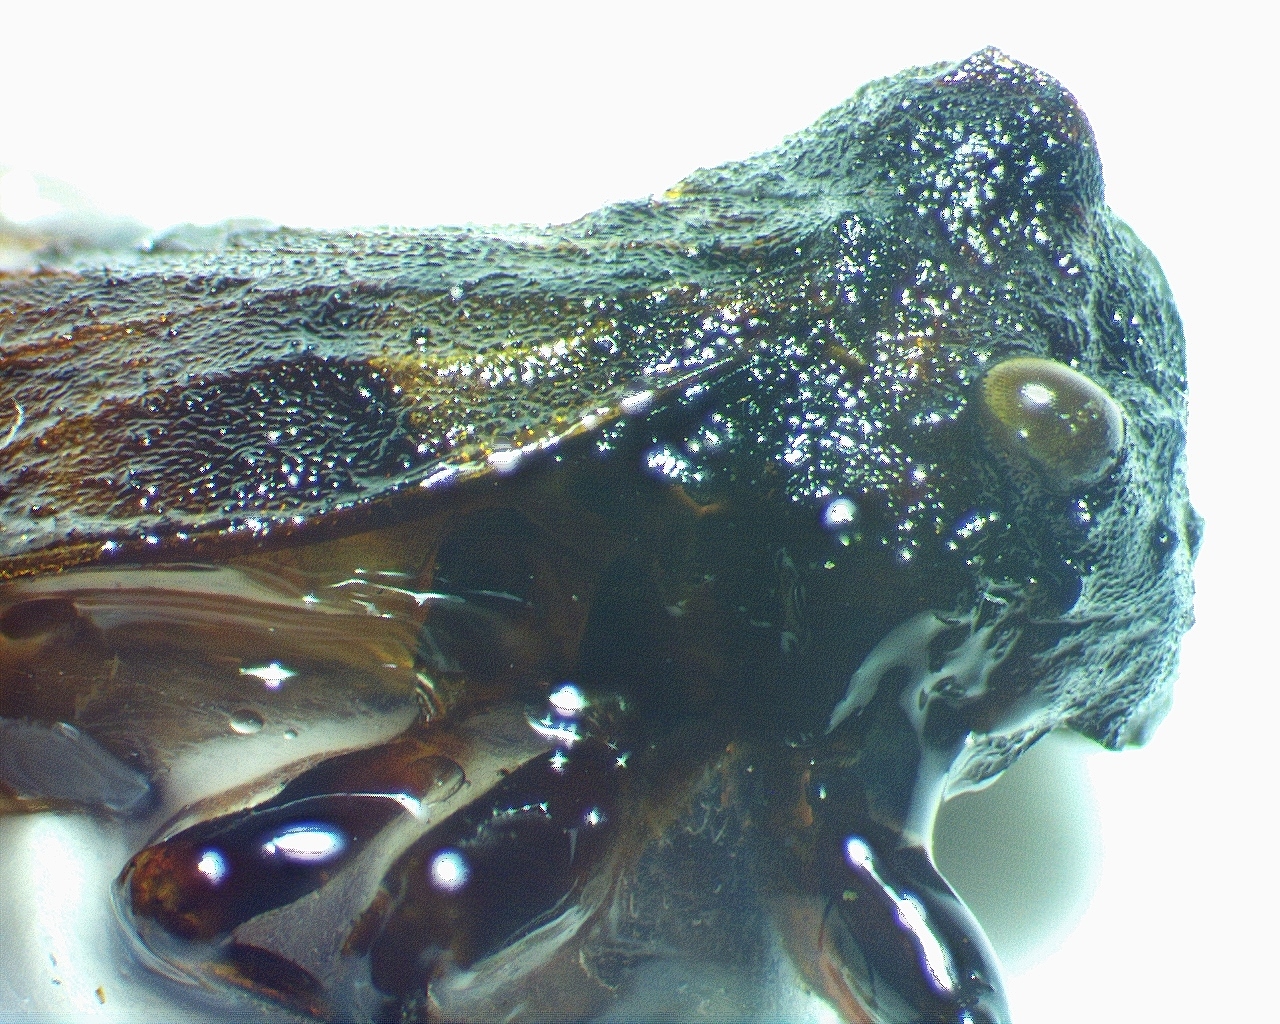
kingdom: Animalia
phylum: Arthropoda
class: Insecta
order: Hemiptera
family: Membracidae
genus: Microcentrus
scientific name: Microcentrus perdita
